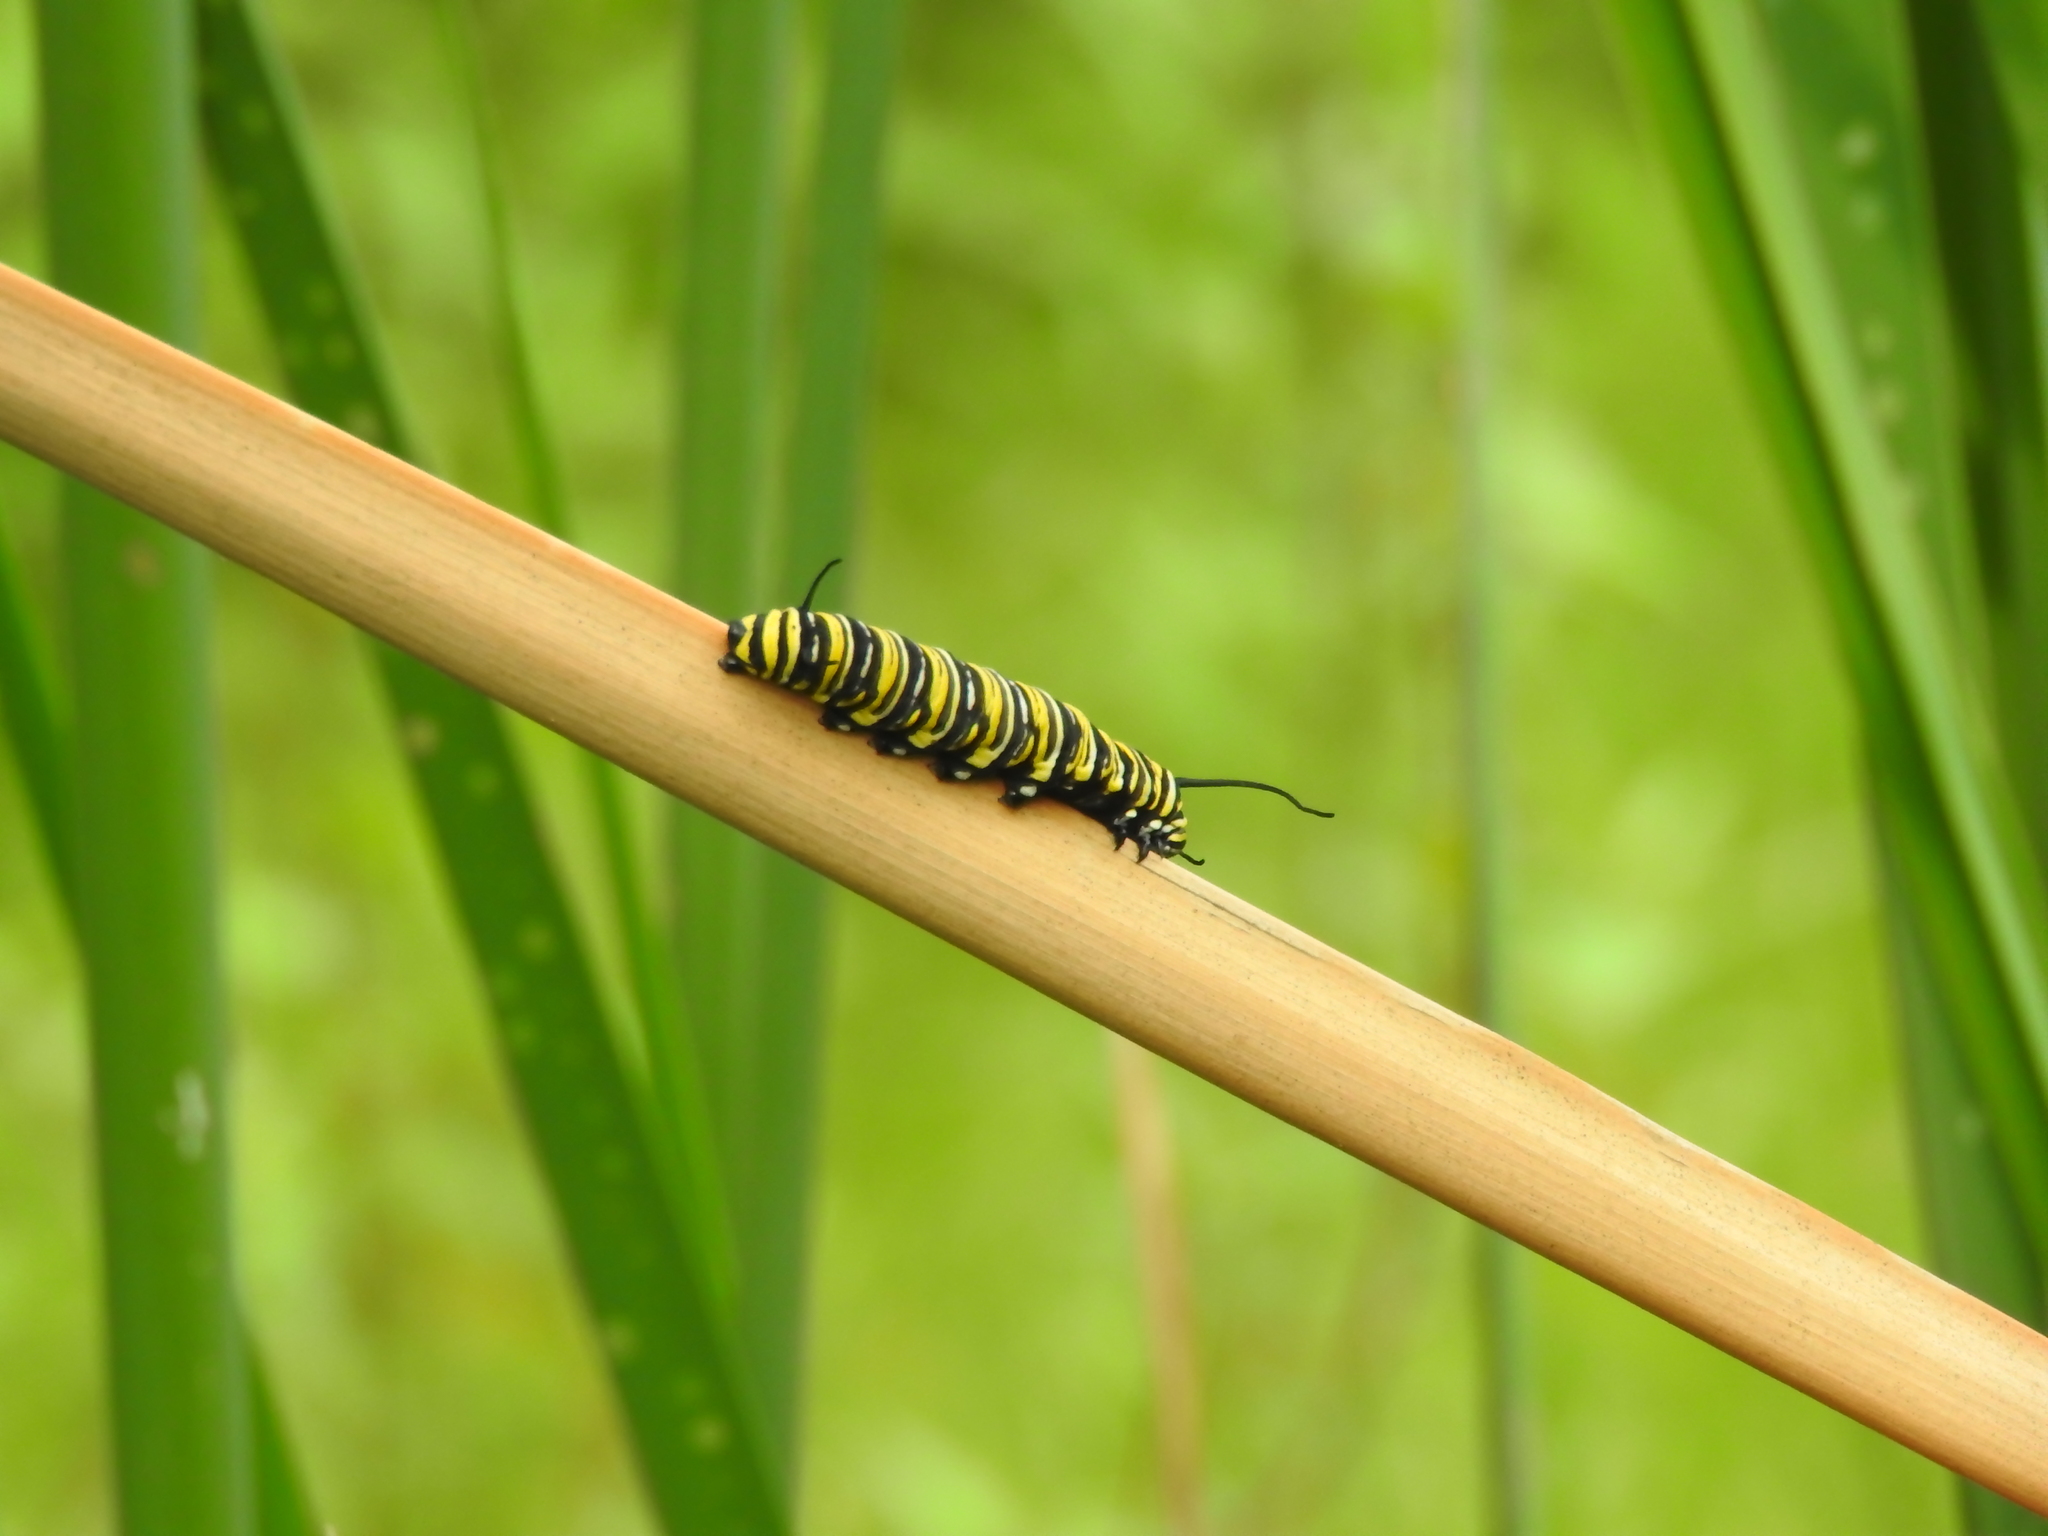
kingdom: Animalia
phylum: Arthropoda
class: Insecta
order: Lepidoptera
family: Nymphalidae
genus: Danaus
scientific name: Danaus plexippus
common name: Monarch
